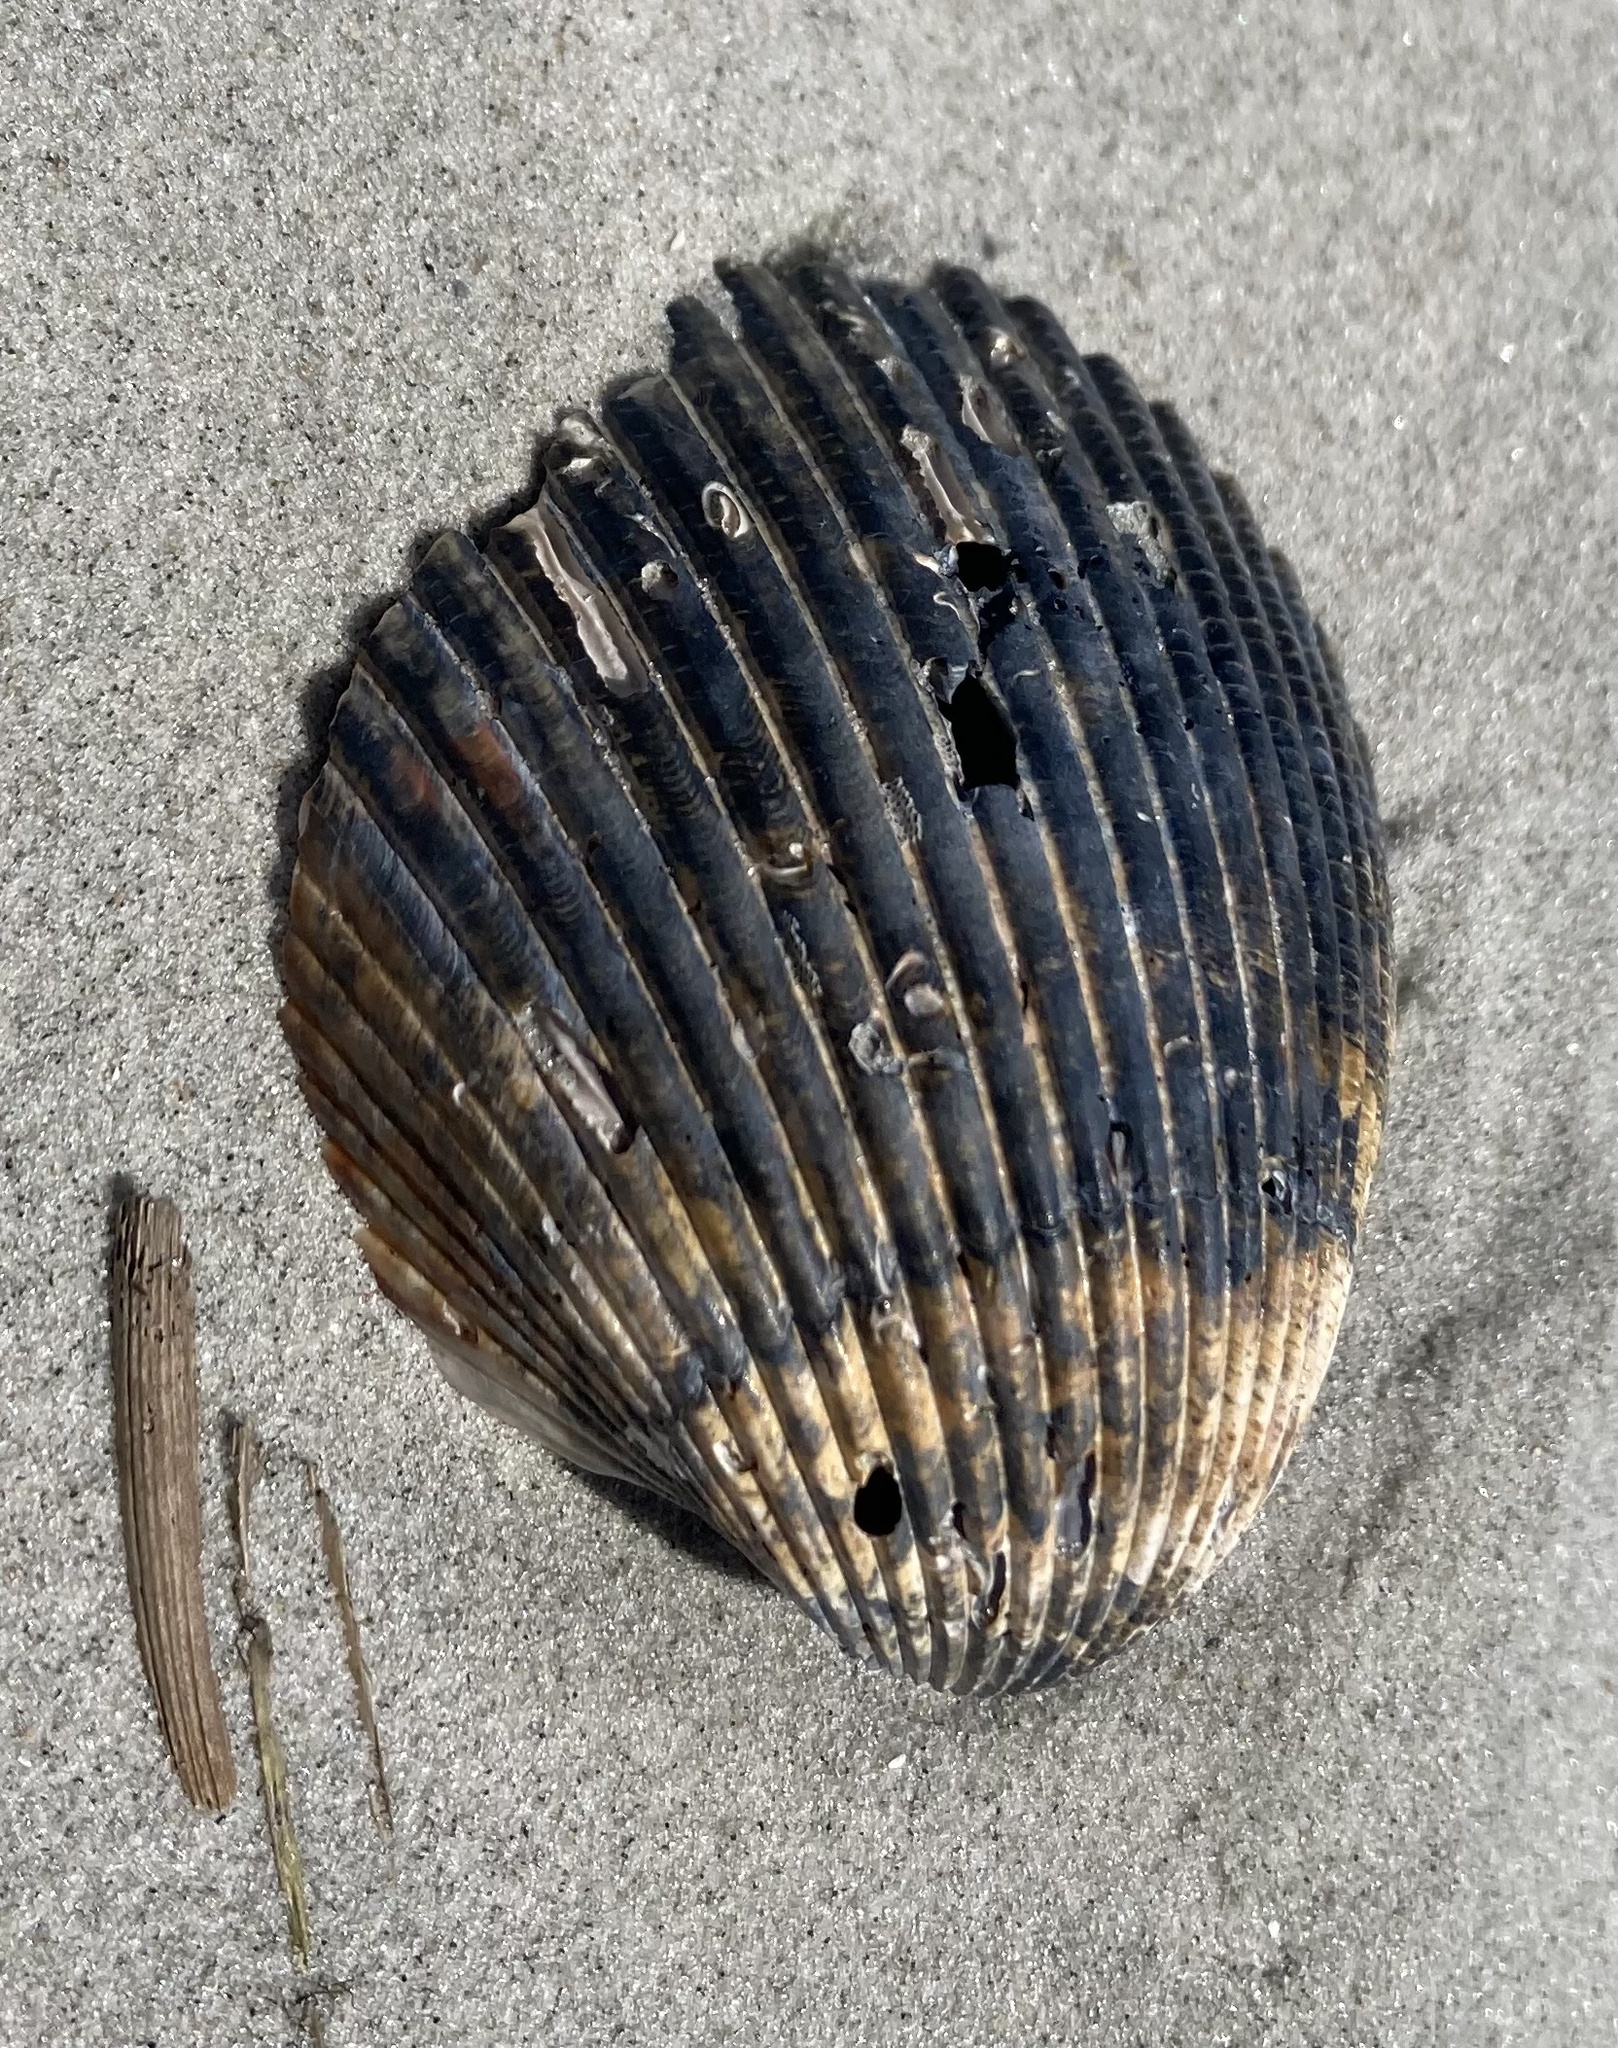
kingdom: Animalia
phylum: Mollusca
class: Bivalvia
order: Cardiida
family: Cardiidae
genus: Dinocardium
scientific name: Dinocardium robustum
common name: Atlantic giant cockle
